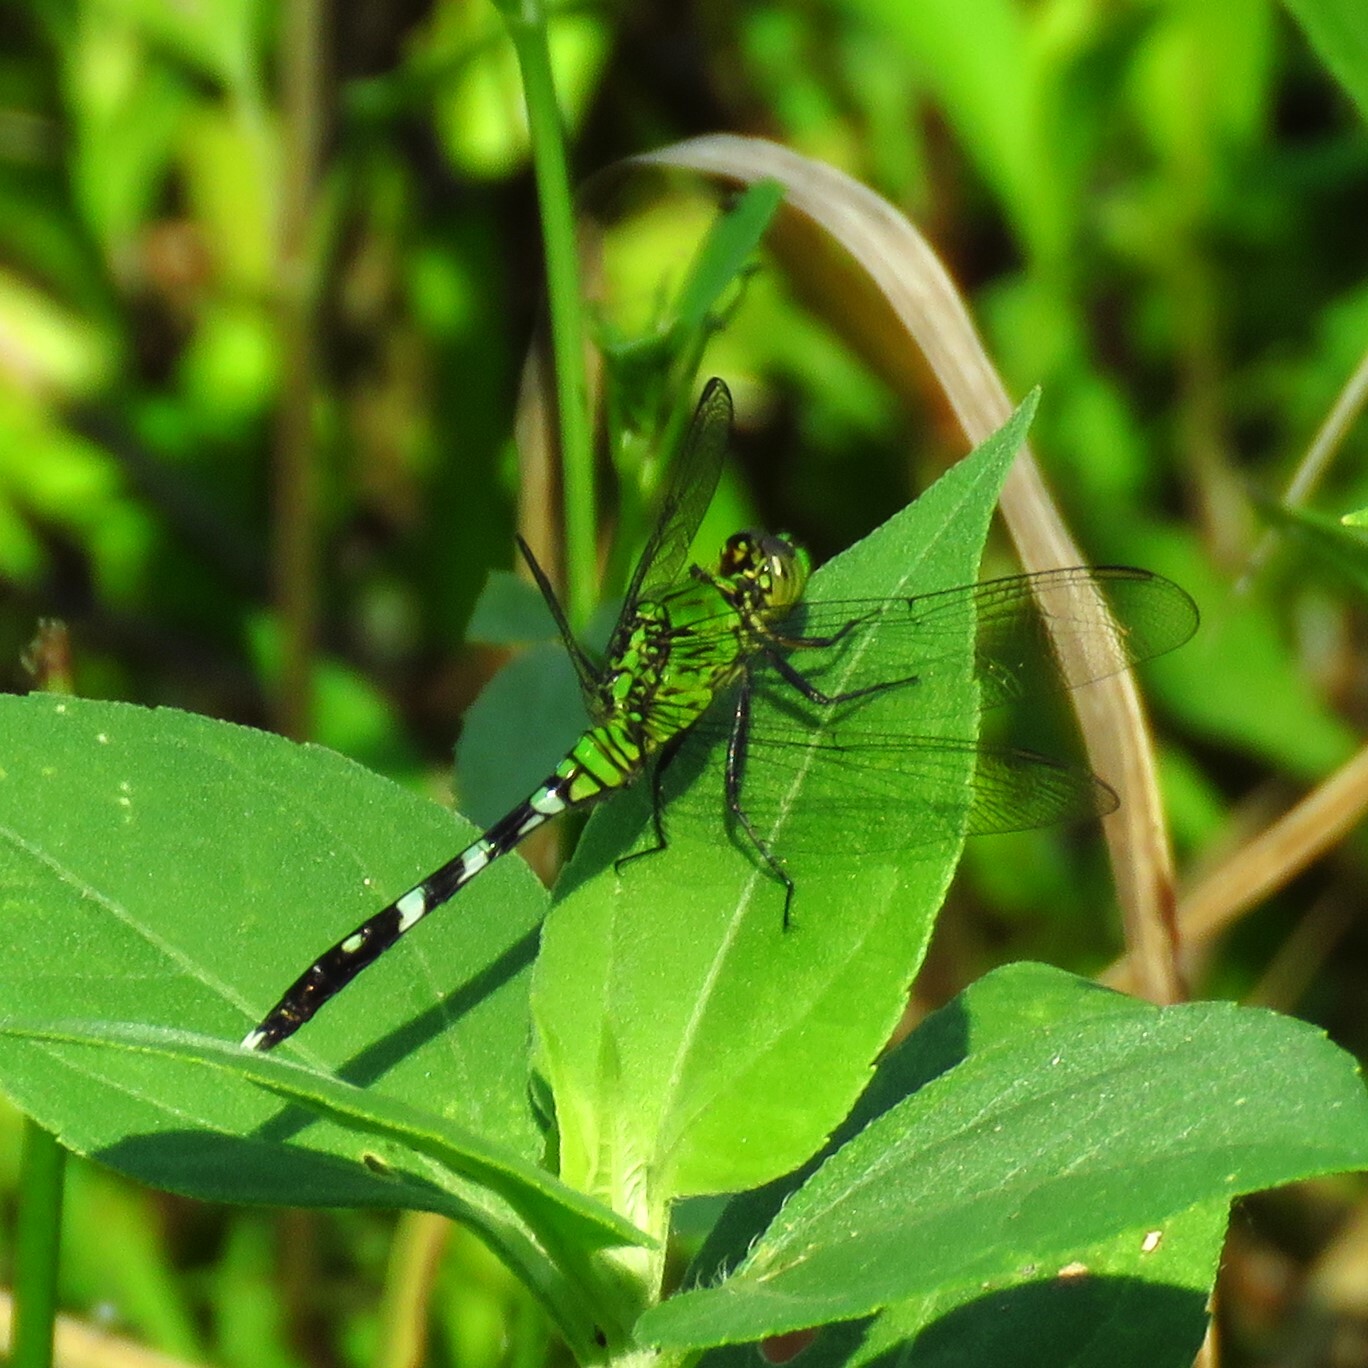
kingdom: Animalia
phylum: Arthropoda
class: Insecta
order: Odonata
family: Libellulidae
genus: Erythemis
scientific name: Erythemis simplicicollis
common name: Eastern pondhawk
